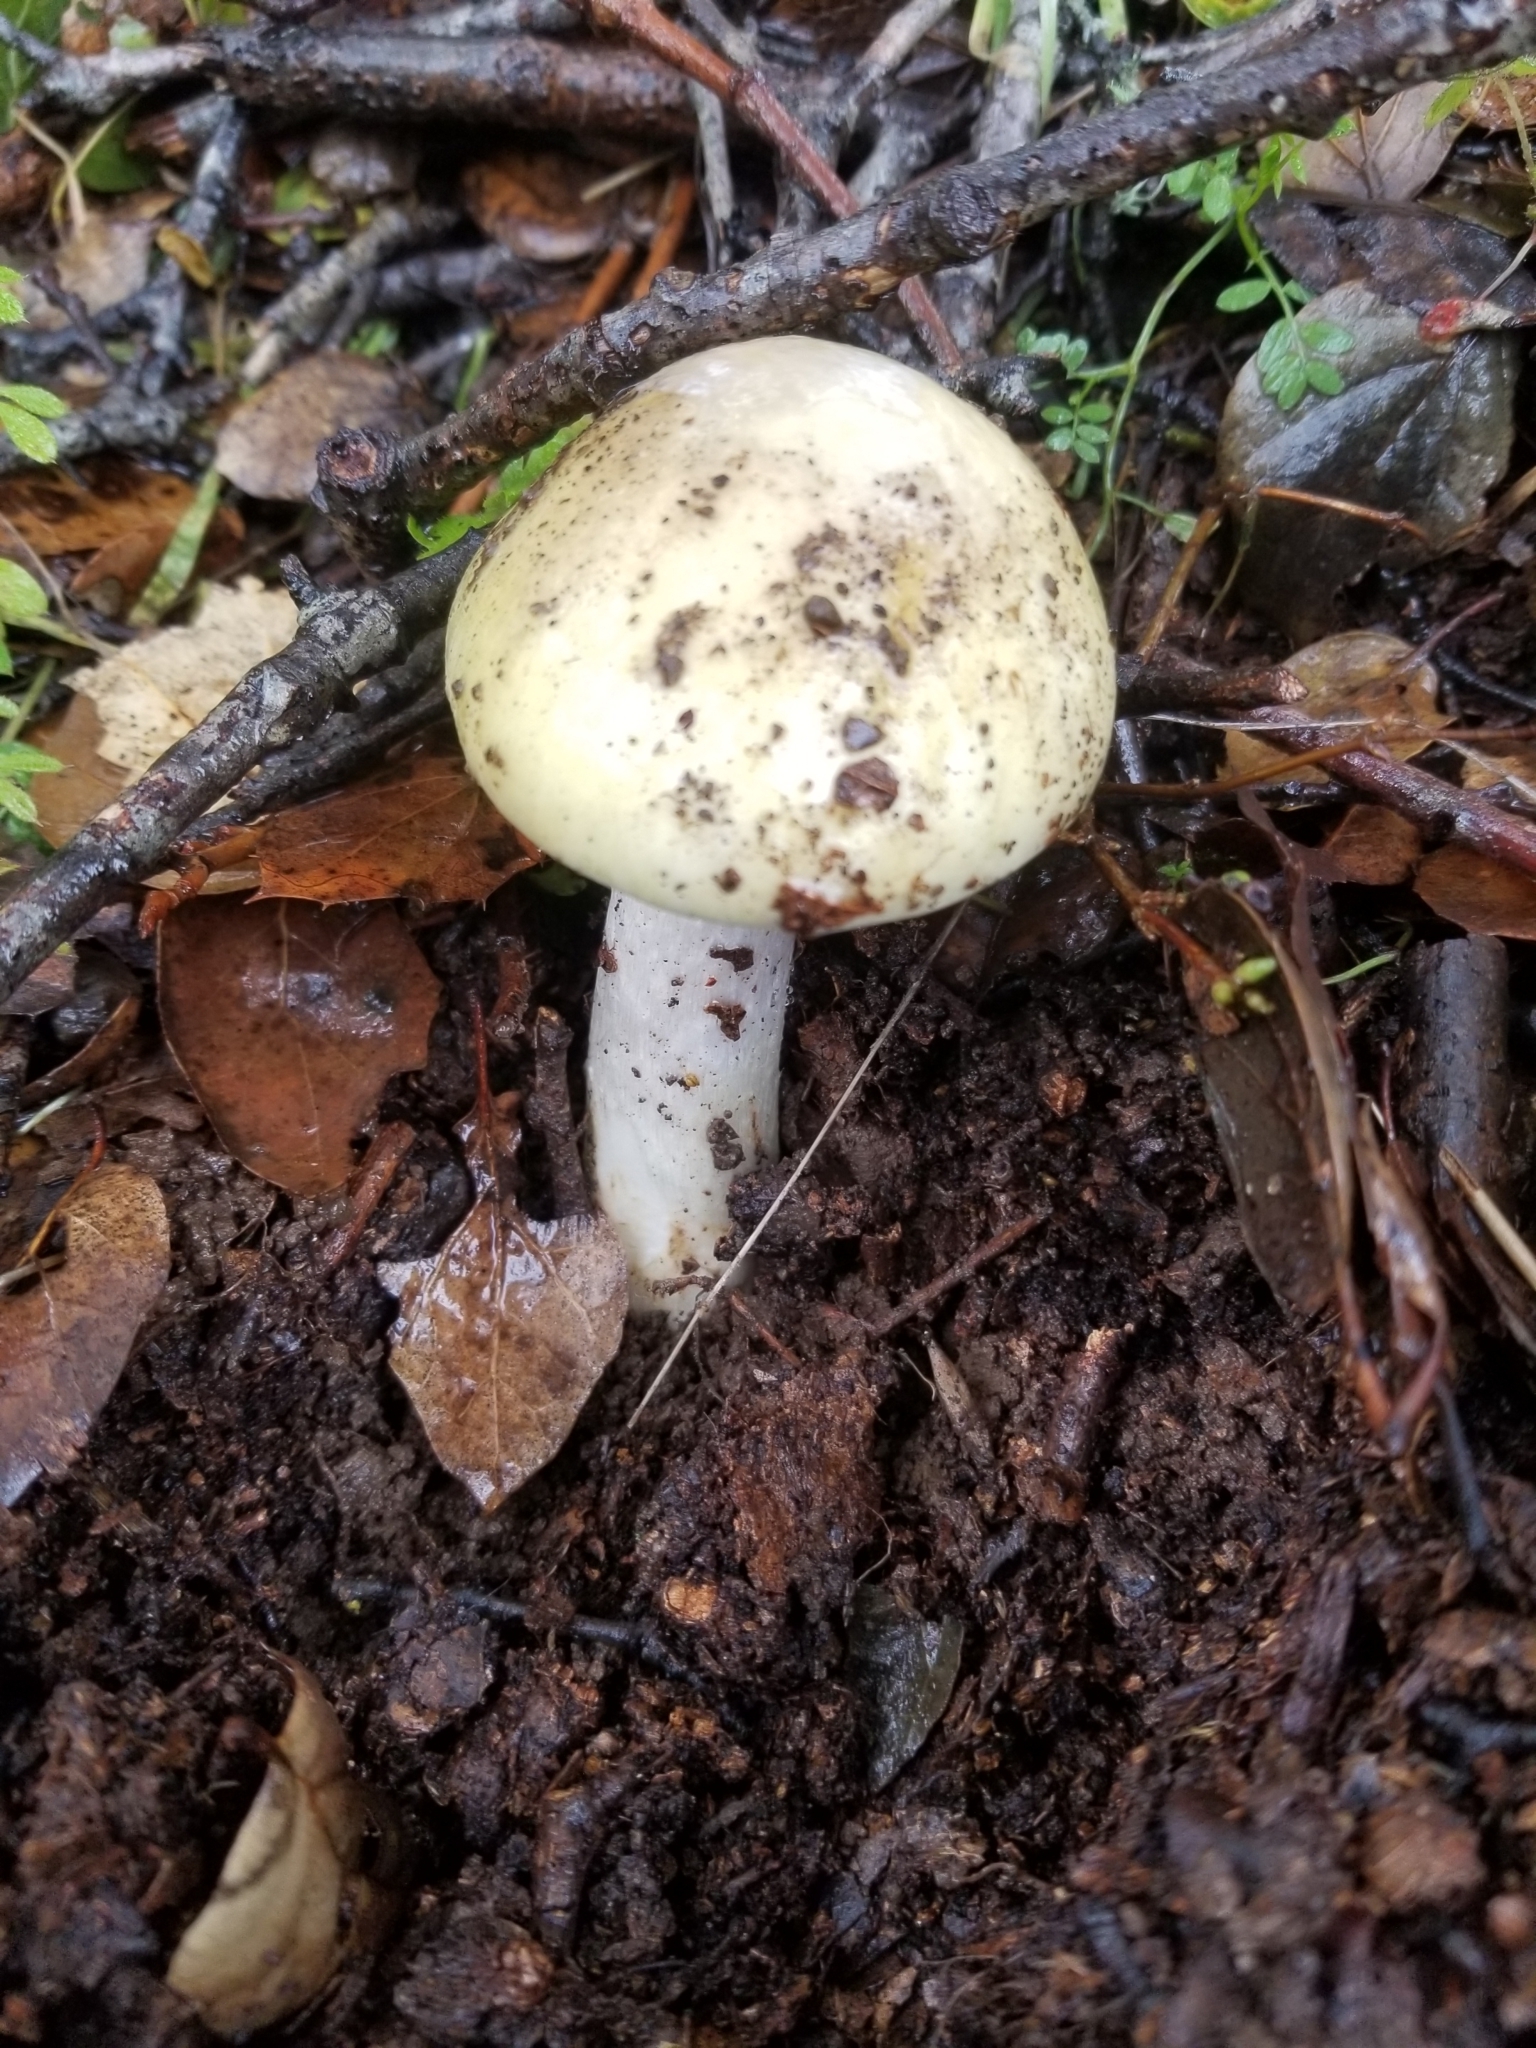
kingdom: Fungi
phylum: Basidiomycota
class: Agaricomycetes
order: Agaricales
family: Amanitaceae
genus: Amanita
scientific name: Amanita phalloides
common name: Death cap
